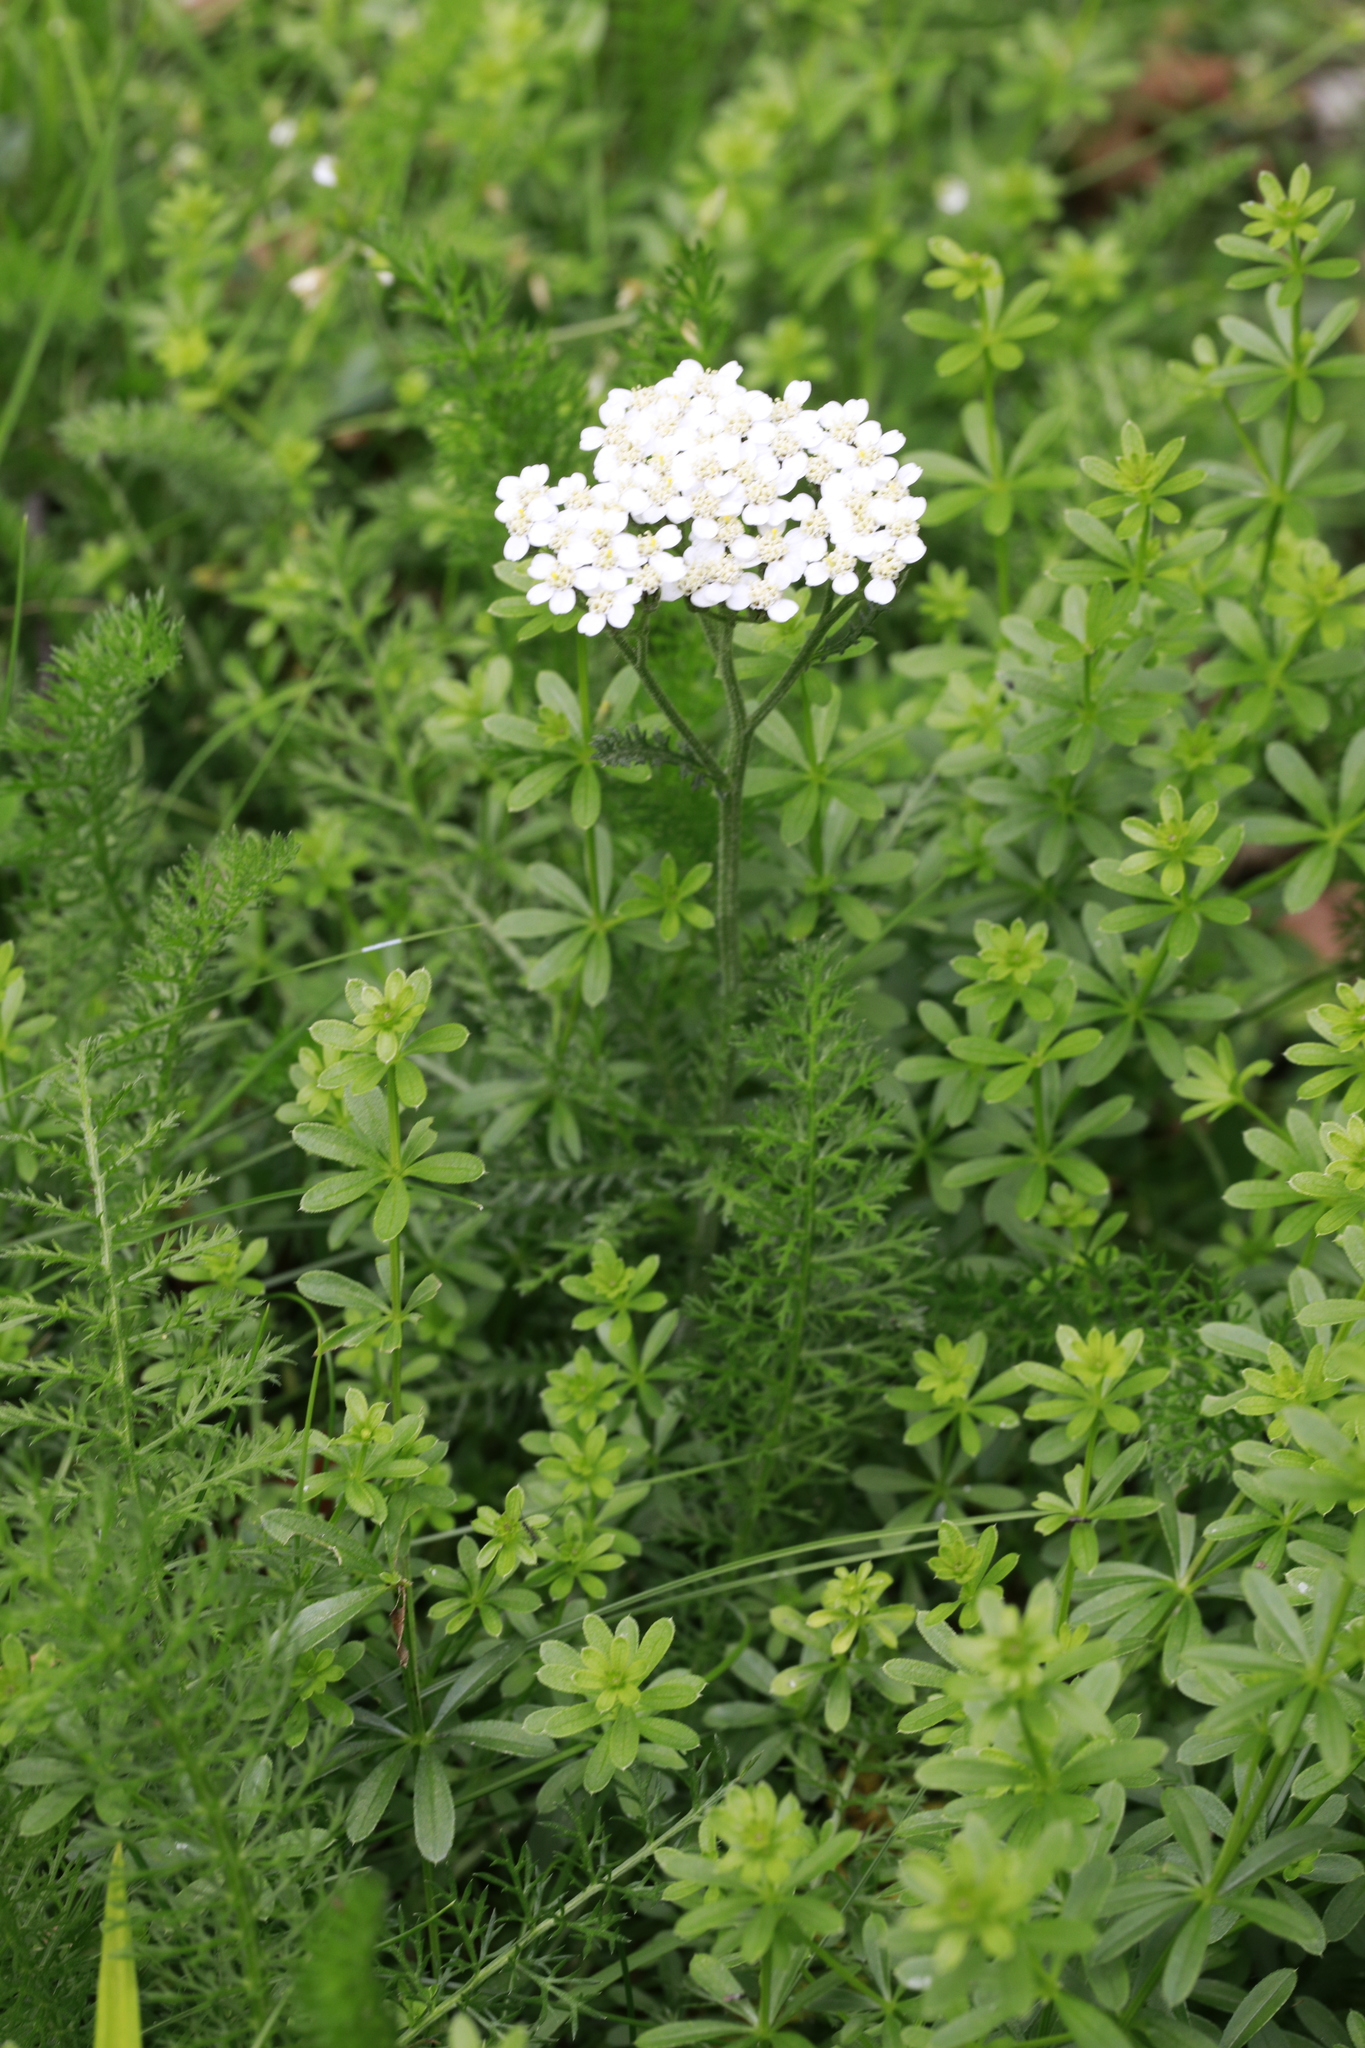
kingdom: Plantae
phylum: Tracheophyta
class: Magnoliopsida
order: Asterales
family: Asteraceae
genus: Achillea
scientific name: Achillea millefolium
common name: Yarrow
